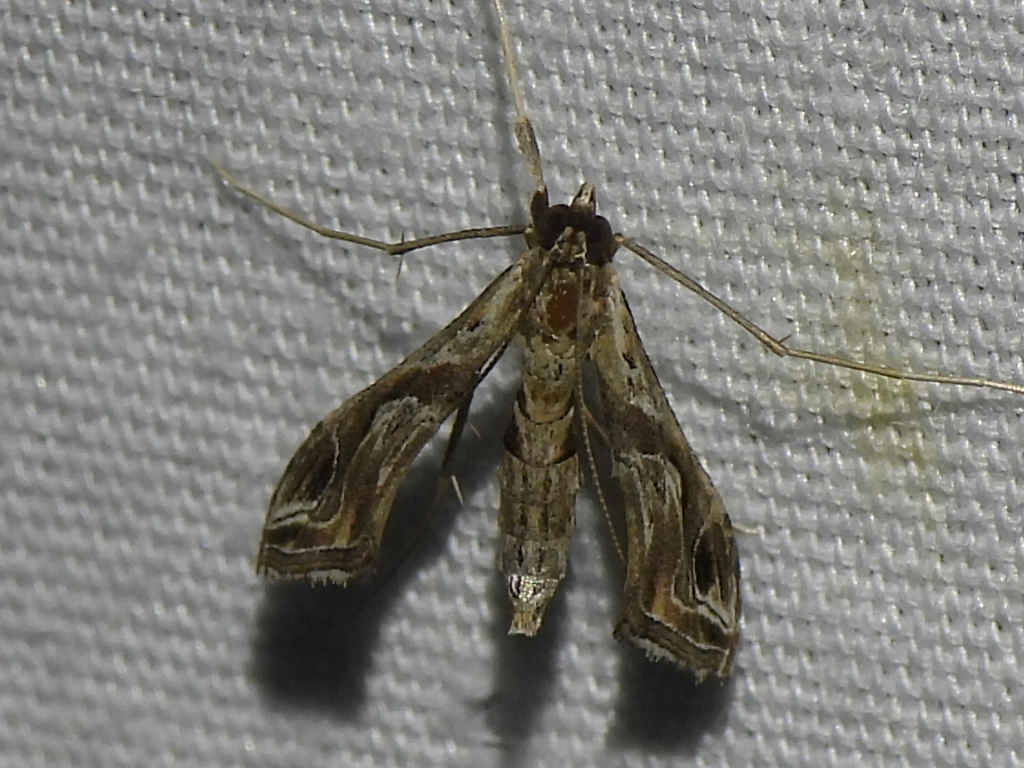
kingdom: Animalia
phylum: Arthropoda
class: Insecta
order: Lepidoptera
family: Crambidae
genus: Lineodes
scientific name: Lineodes integra
